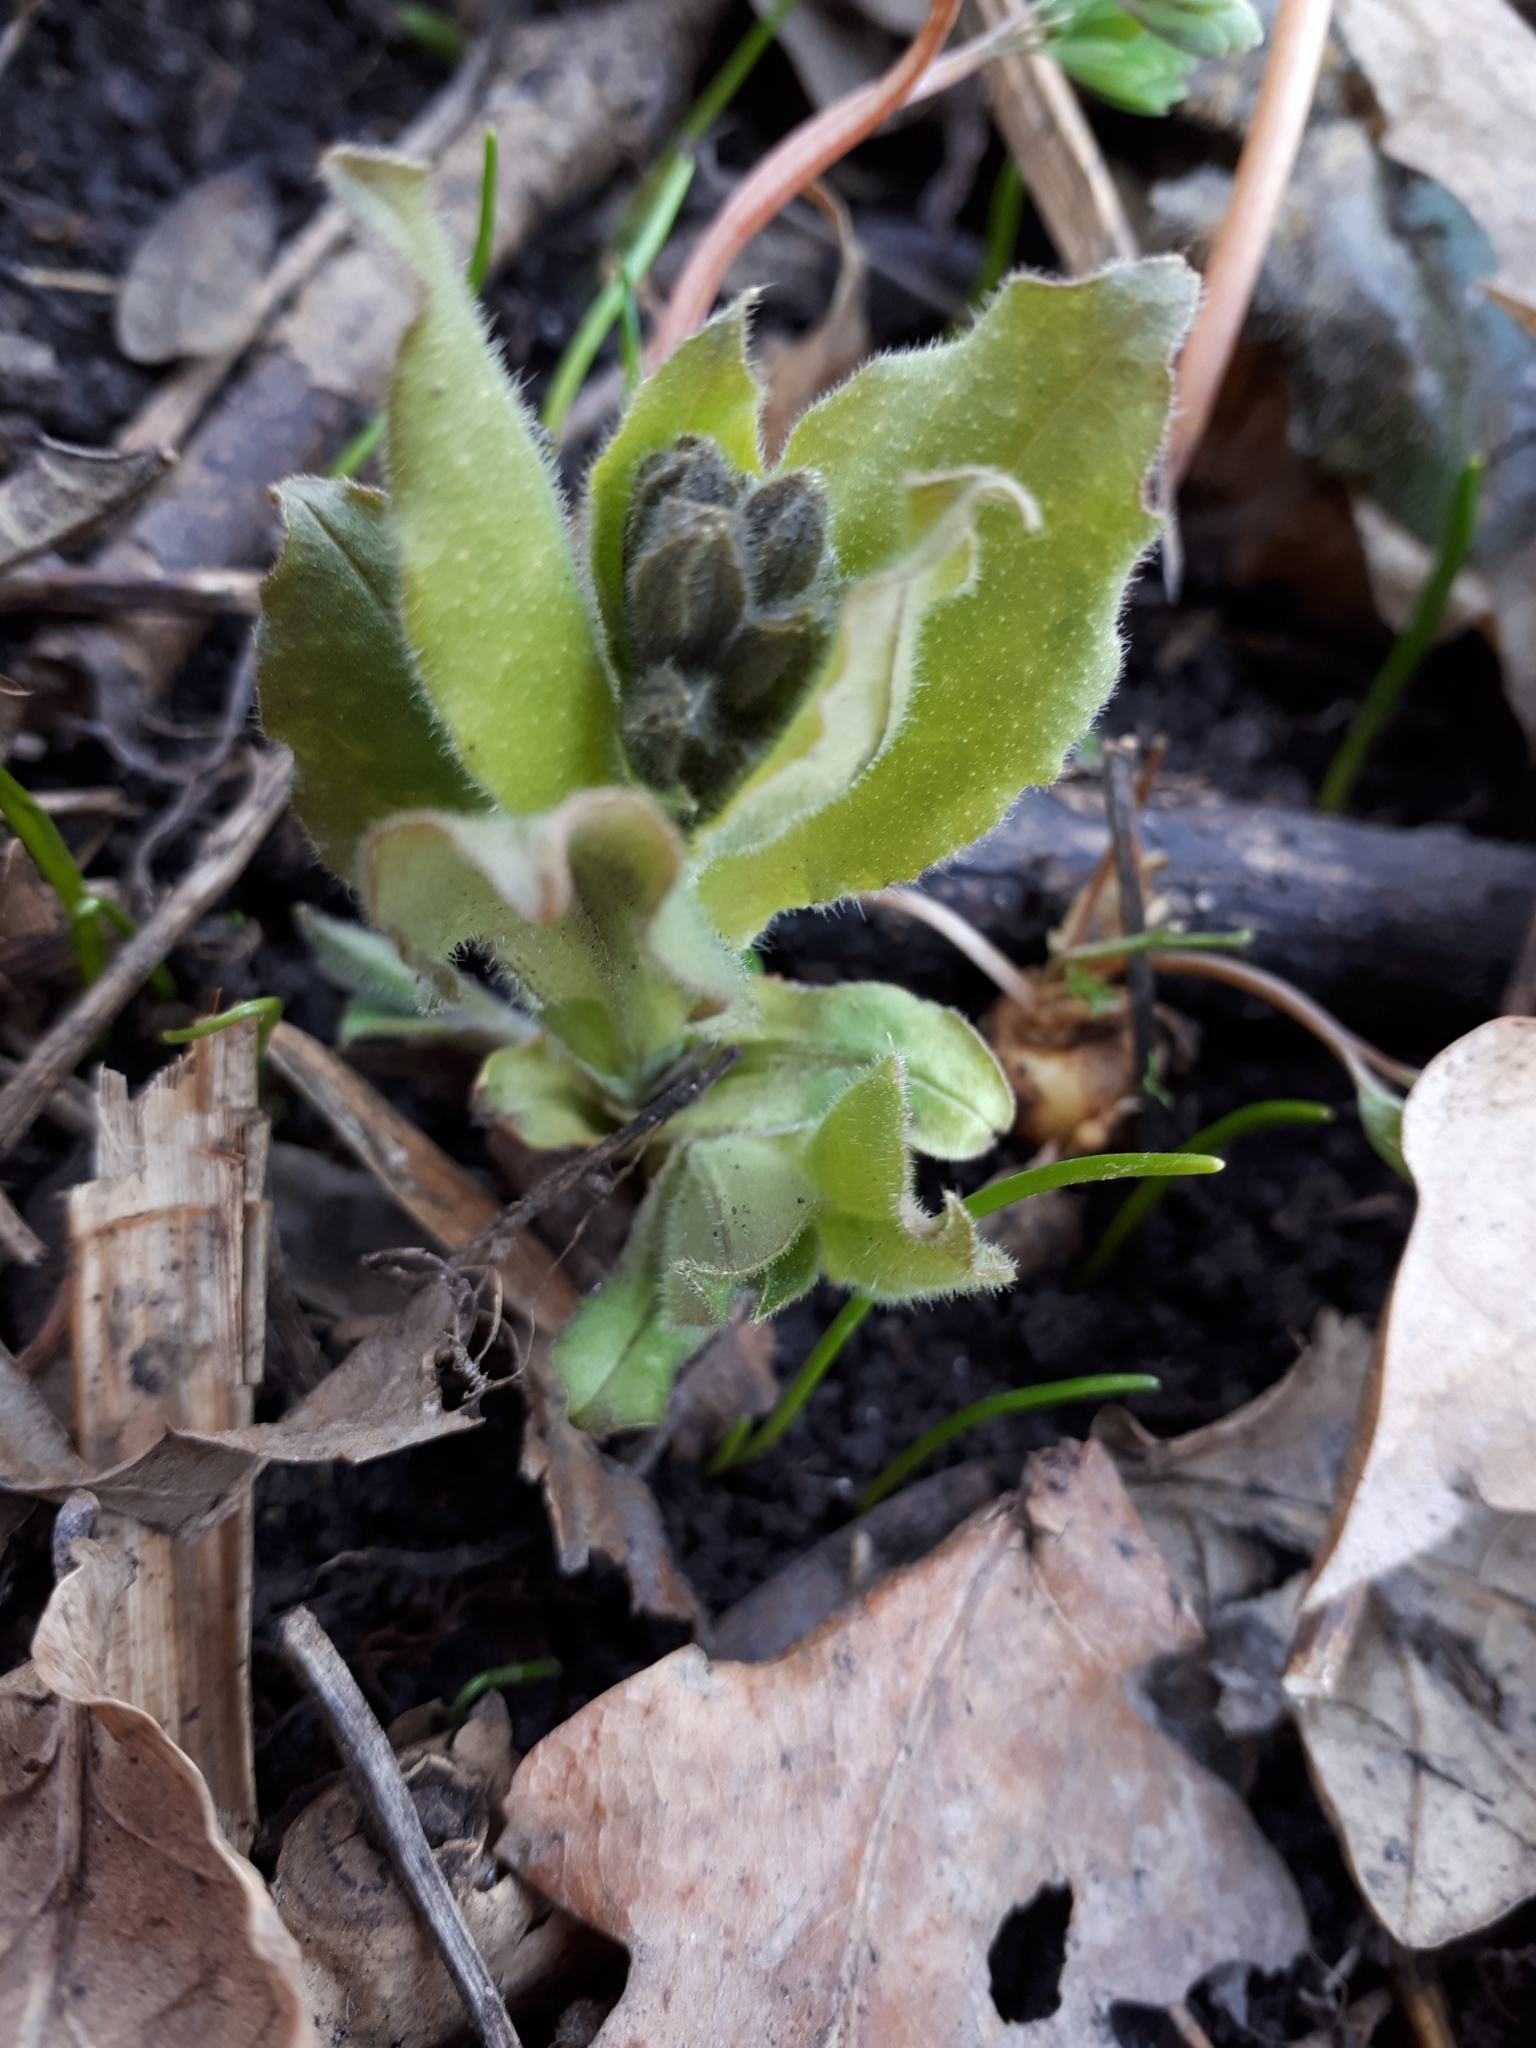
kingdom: Plantae
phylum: Tracheophyta
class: Magnoliopsida
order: Boraginales
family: Boraginaceae
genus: Pulmonaria
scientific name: Pulmonaria obscura
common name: Suffolk lungwort
